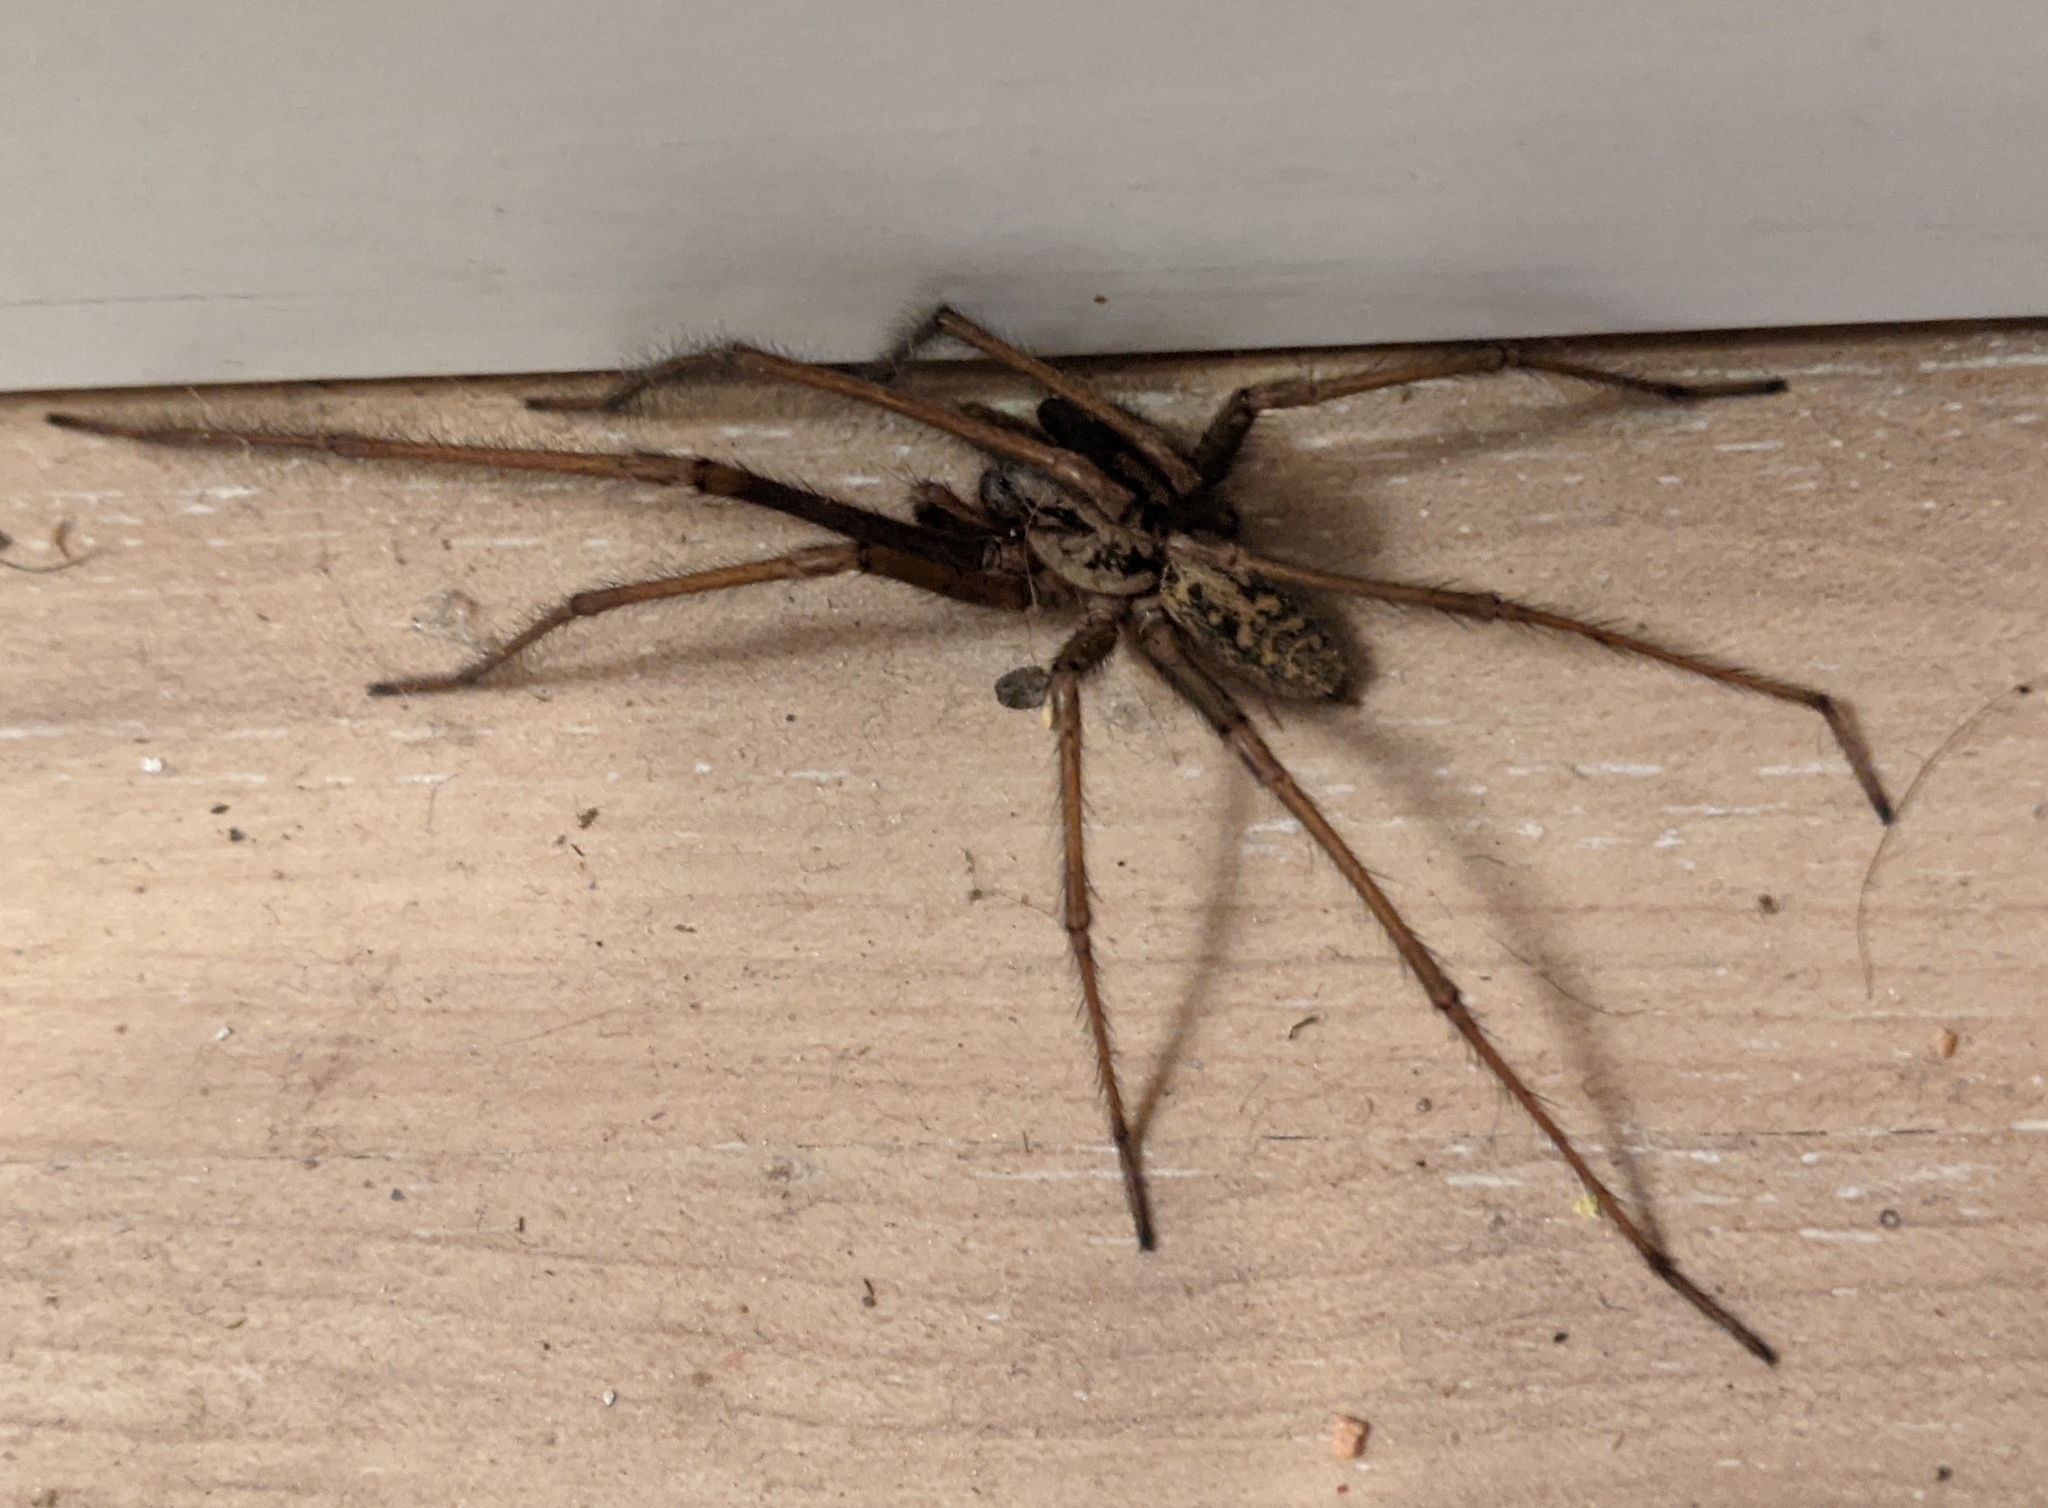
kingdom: Animalia
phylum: Arthropoda
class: Arachnida
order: Araneae
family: Agelenidae
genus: Eratigena
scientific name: Eratigena duellica
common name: Giant house spider
